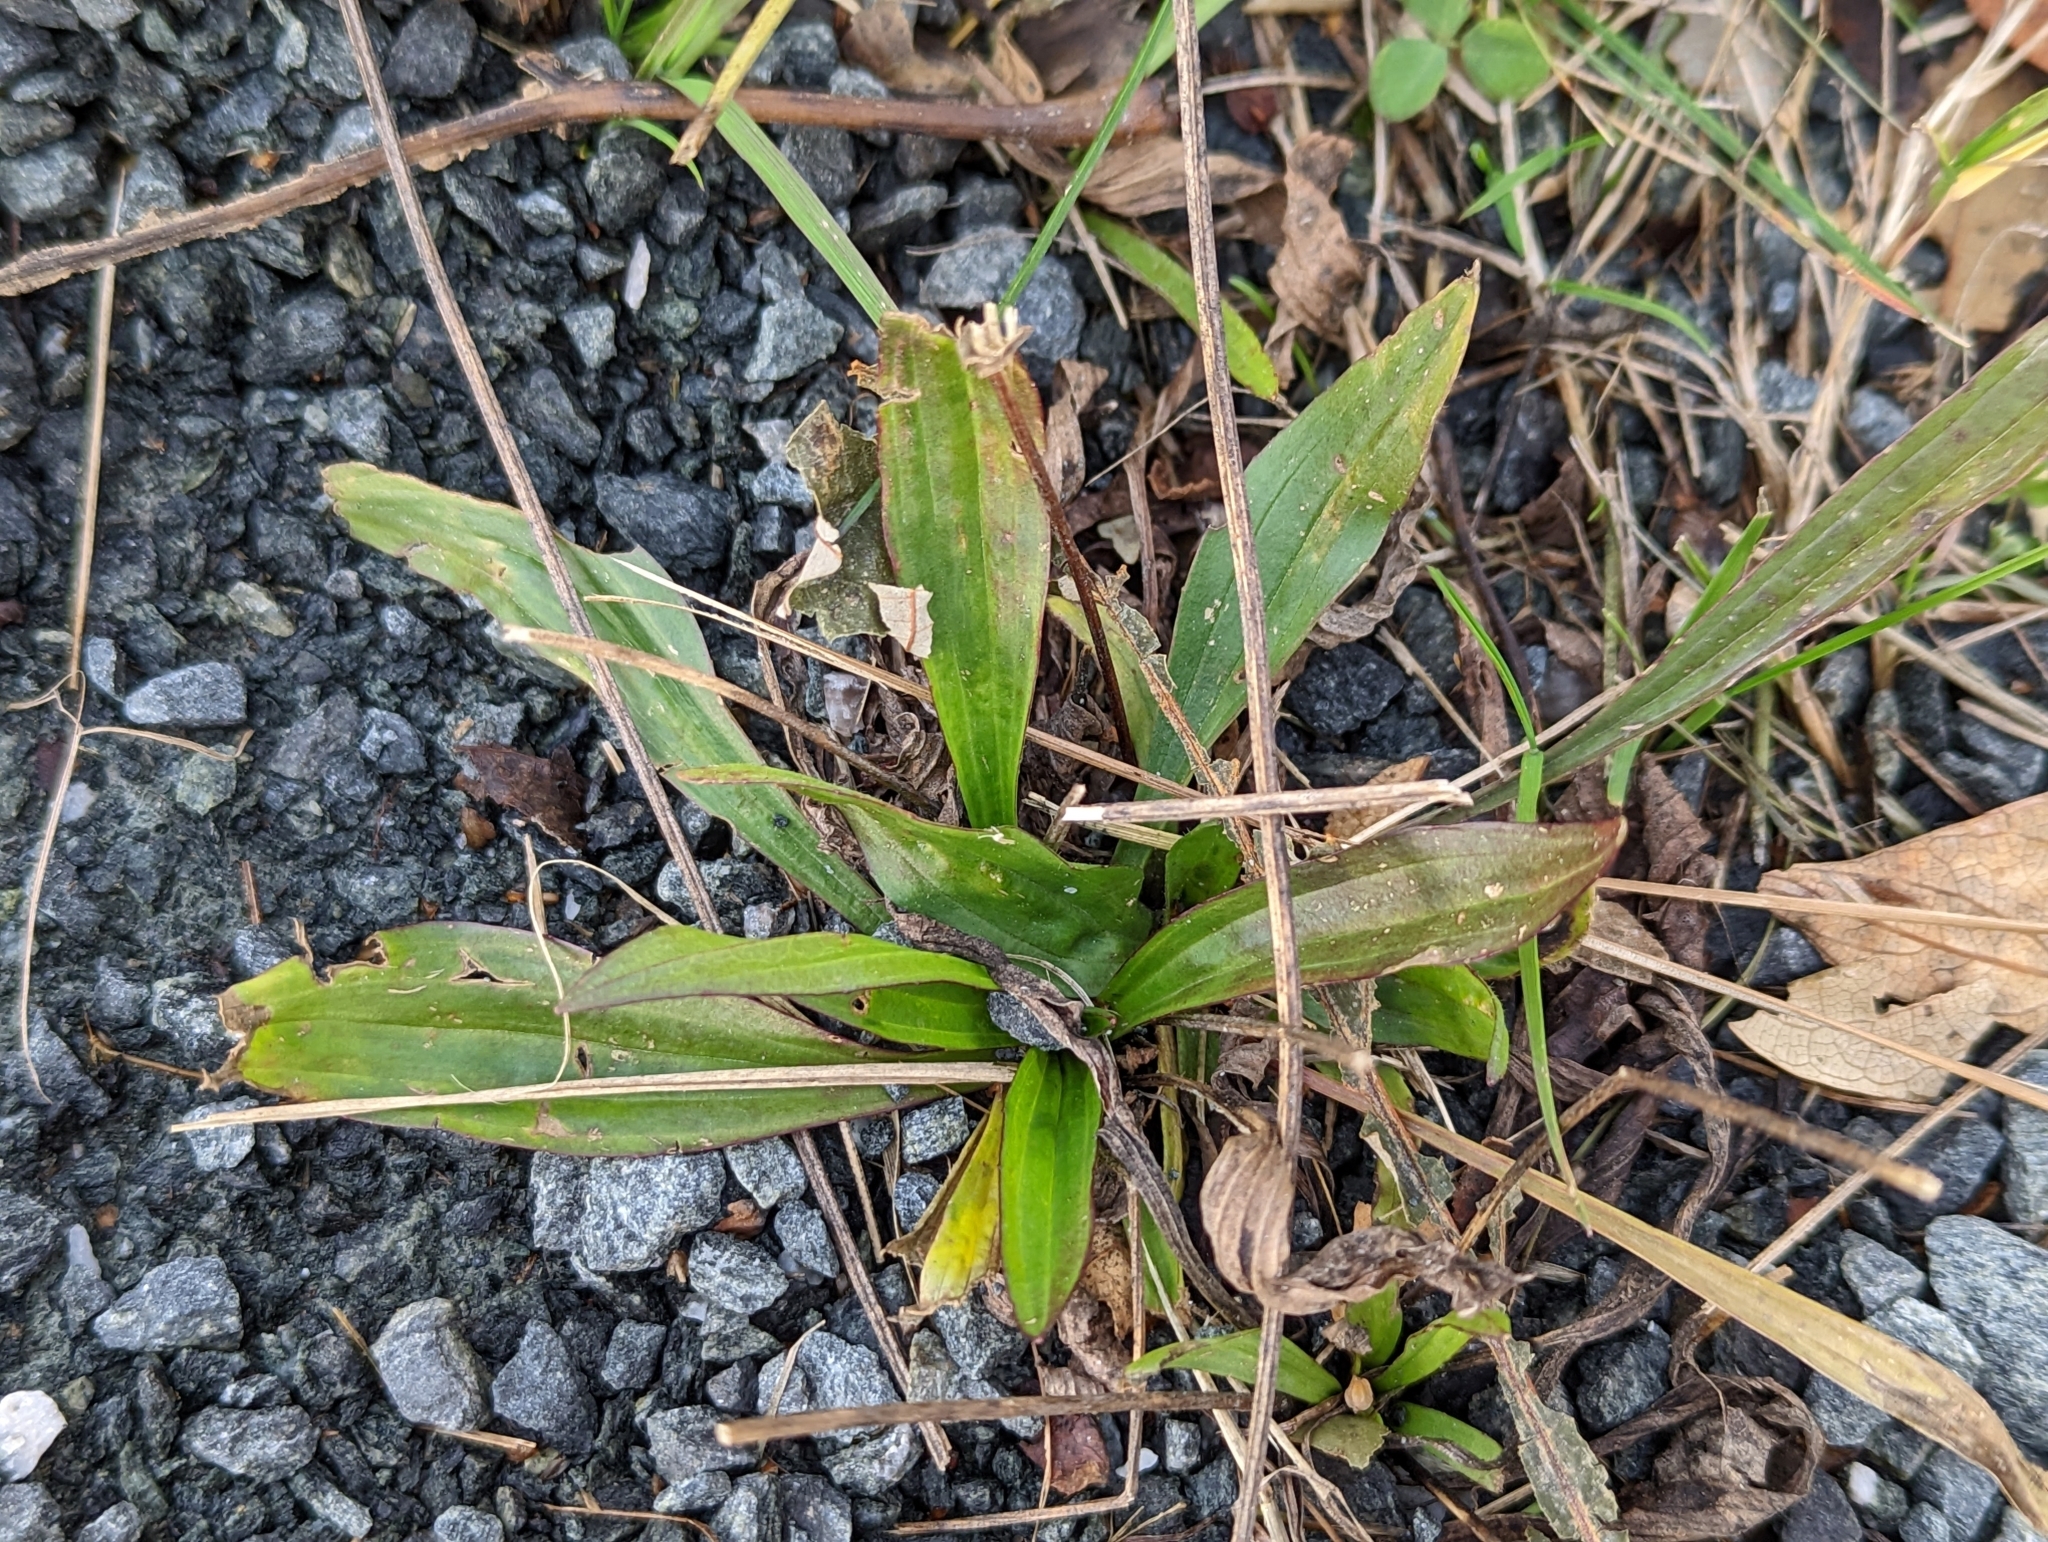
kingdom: Plantae
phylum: Tracheophyta
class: Magnoliopsida
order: Lamiales
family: Plantaginaceae
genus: Plantago
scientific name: Plantago lanceolata
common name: Ribwort plantain
